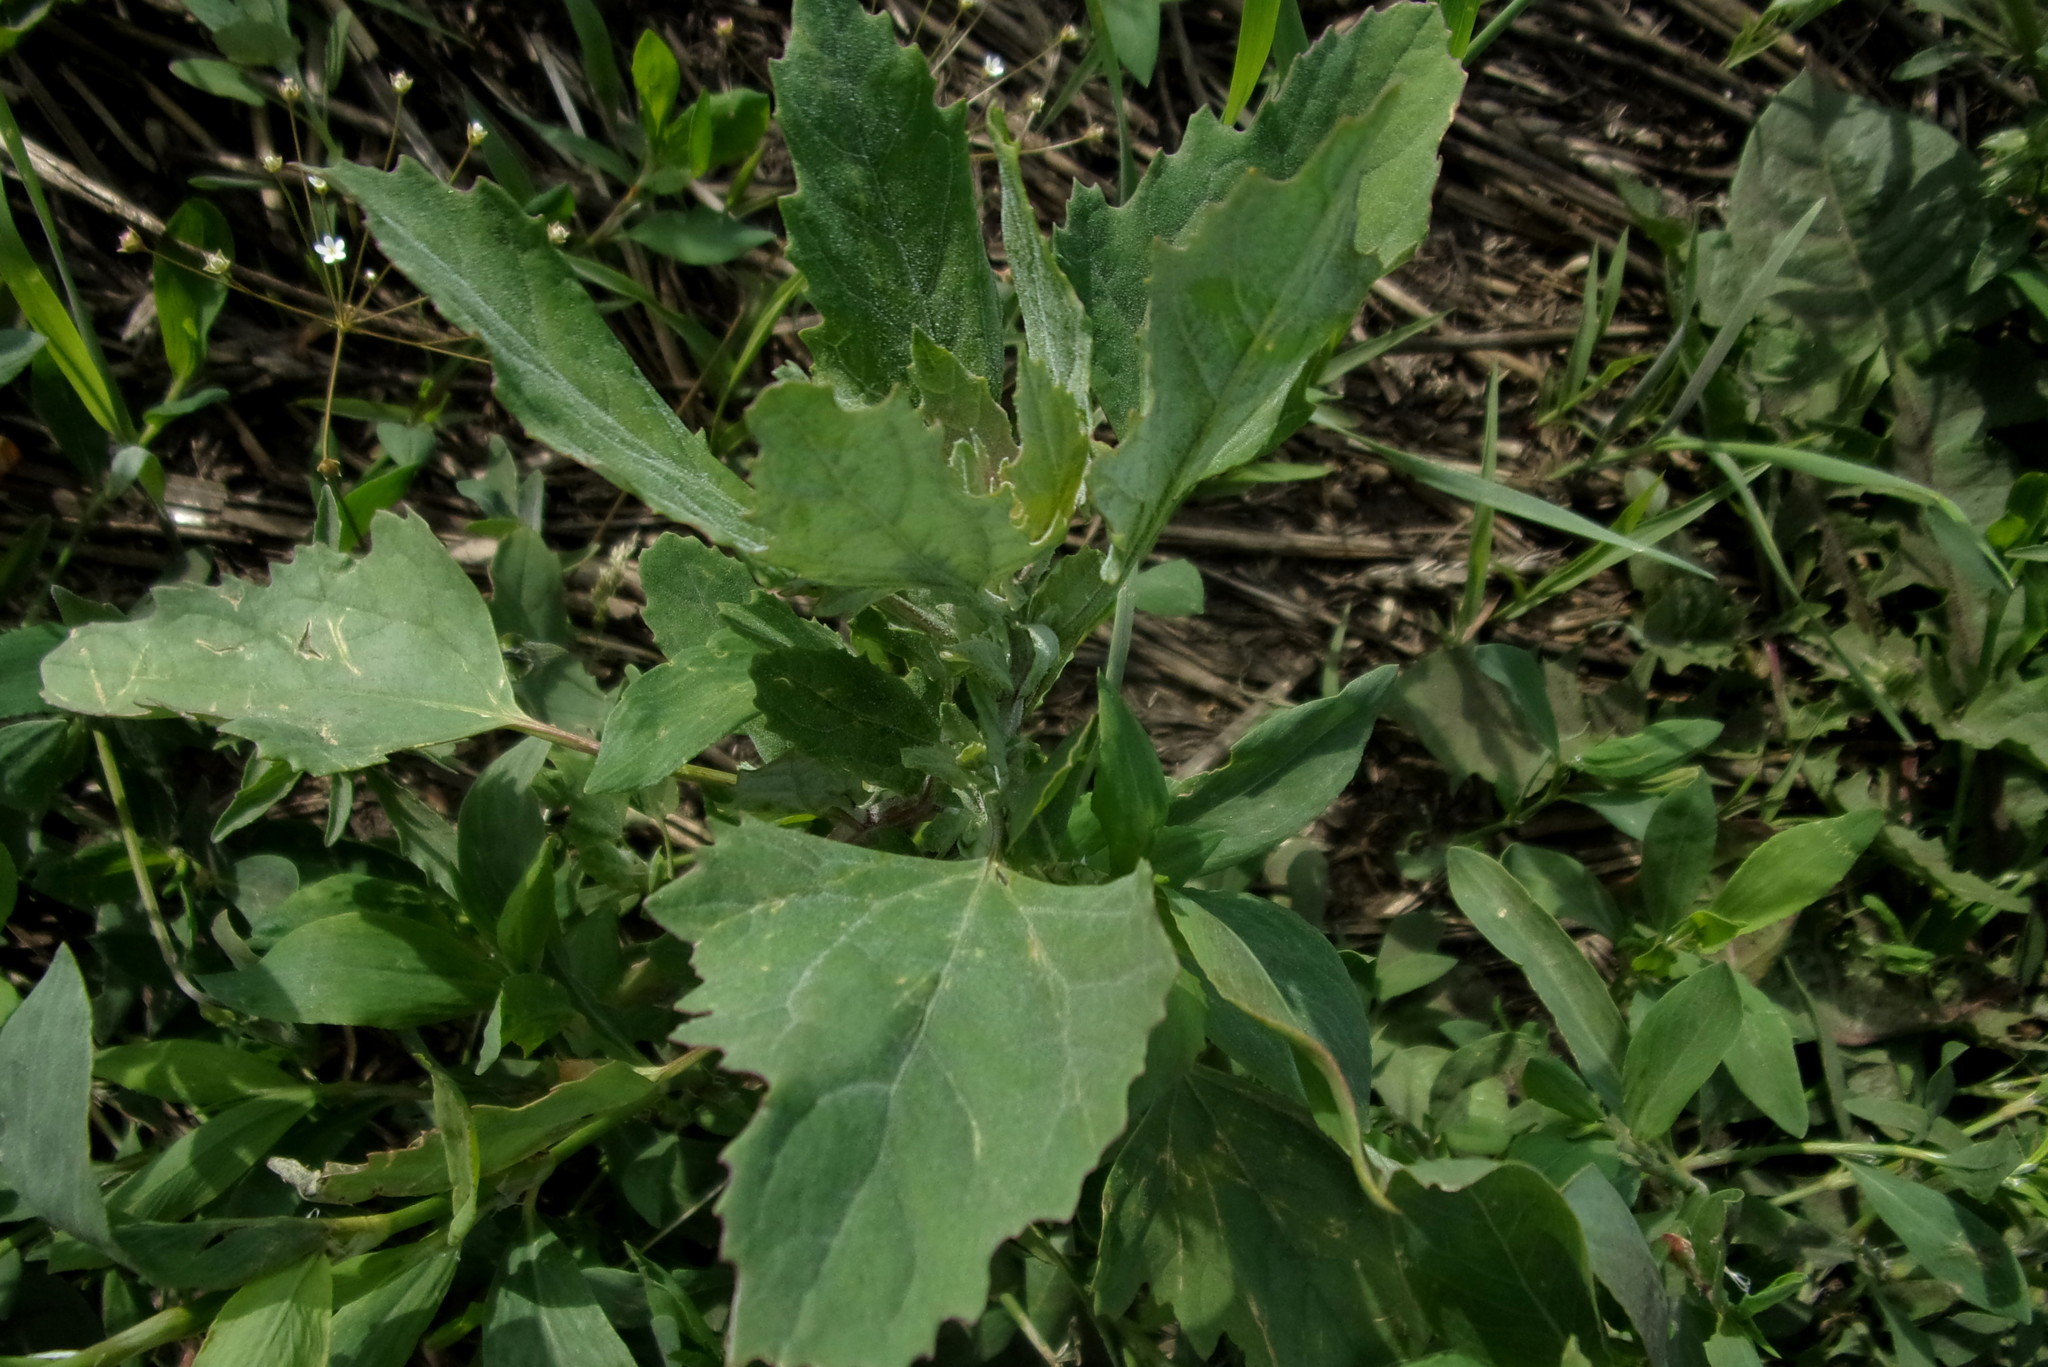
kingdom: Plantae
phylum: Tracheophyta
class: Magnoliopsida
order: Caryophyllales
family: Amaranthaceae
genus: Chenopodium
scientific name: Chenopodium album
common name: Fat-hen
